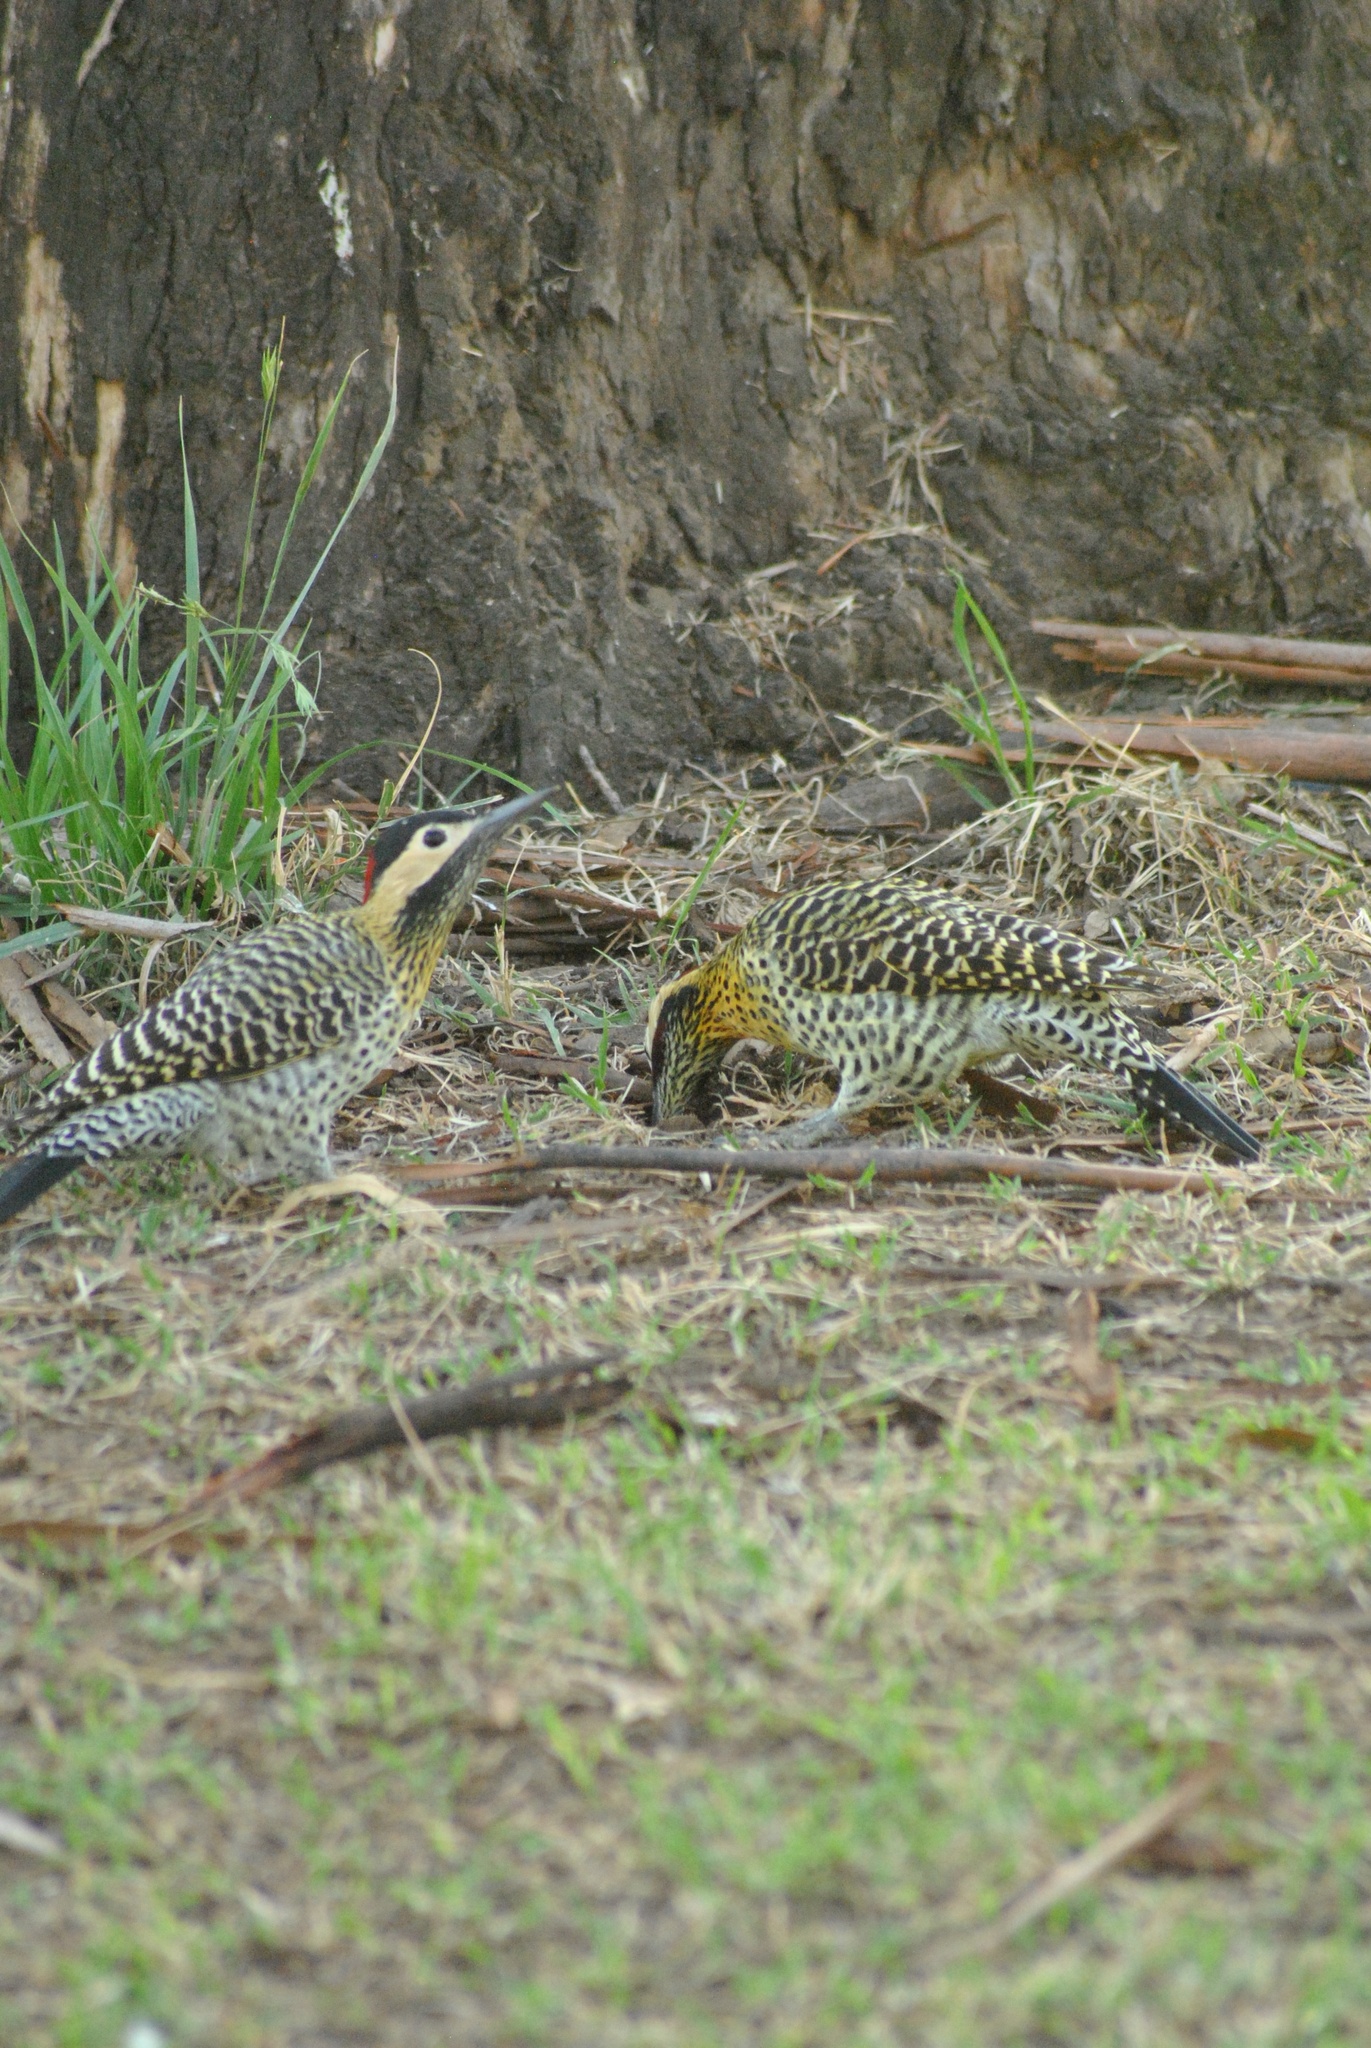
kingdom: Animalia
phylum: Chordata
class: Aves
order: Piciformes
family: Picidae
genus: Colaptes
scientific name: Colaptes melanochloros
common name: Green-barred woodpecker
